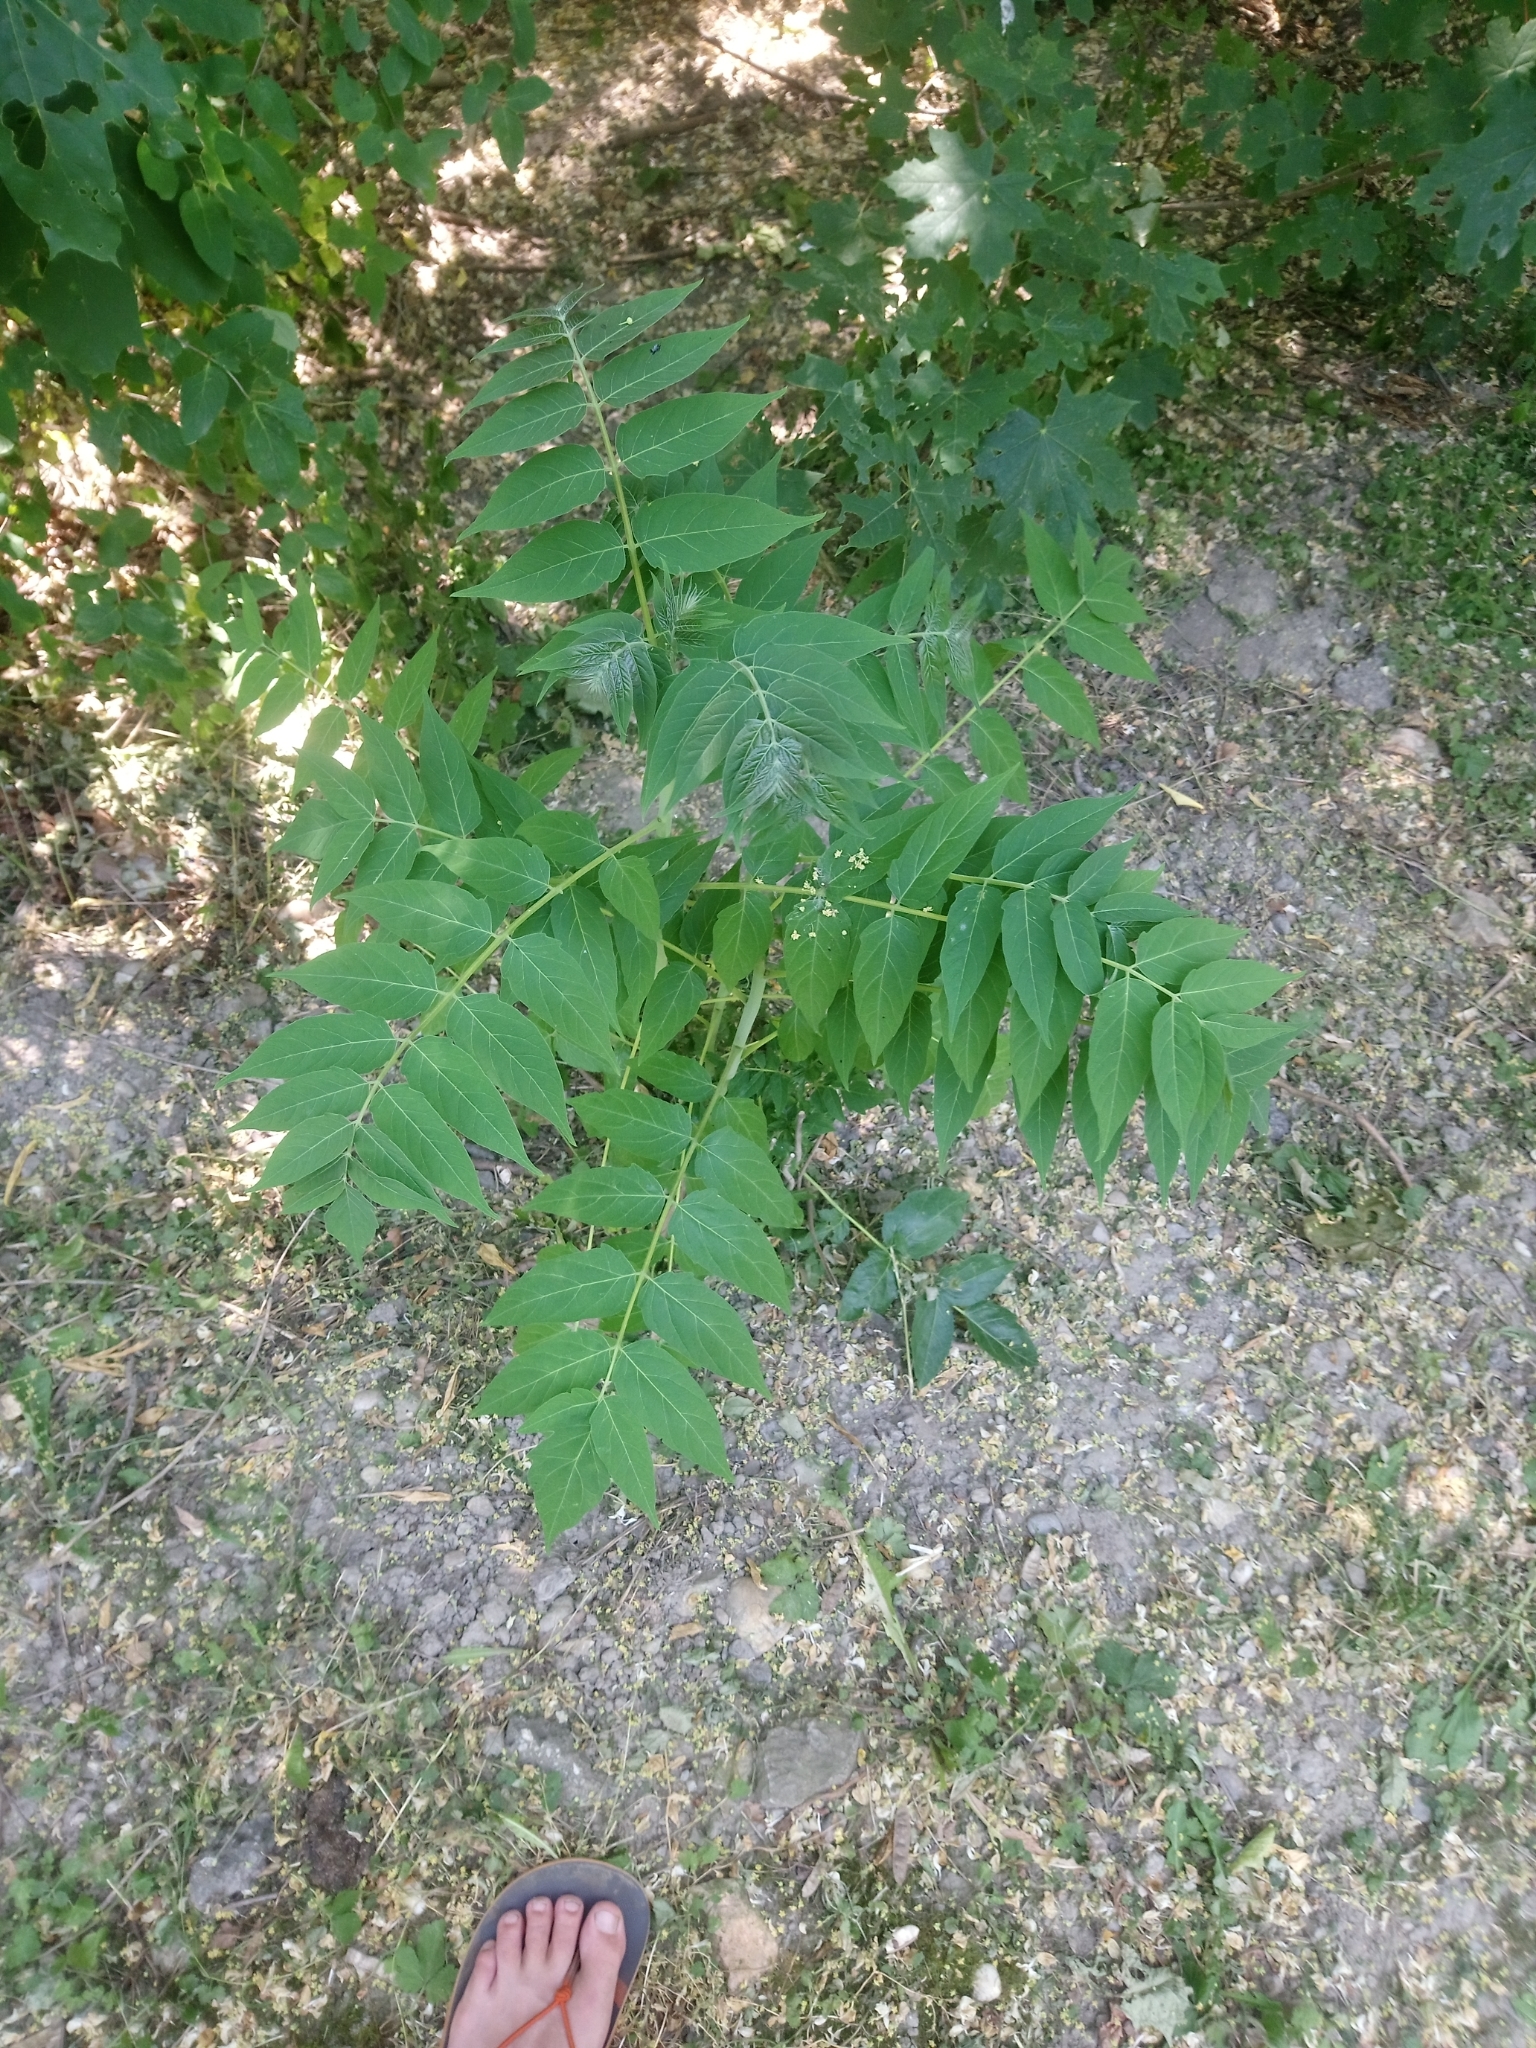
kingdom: Plantae
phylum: Tracheophyta
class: Magnoliopsida
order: Sapindales
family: Simaroubaceae
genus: Ailanthus
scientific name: Ailanthus altissima
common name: Tree-of-heaven
